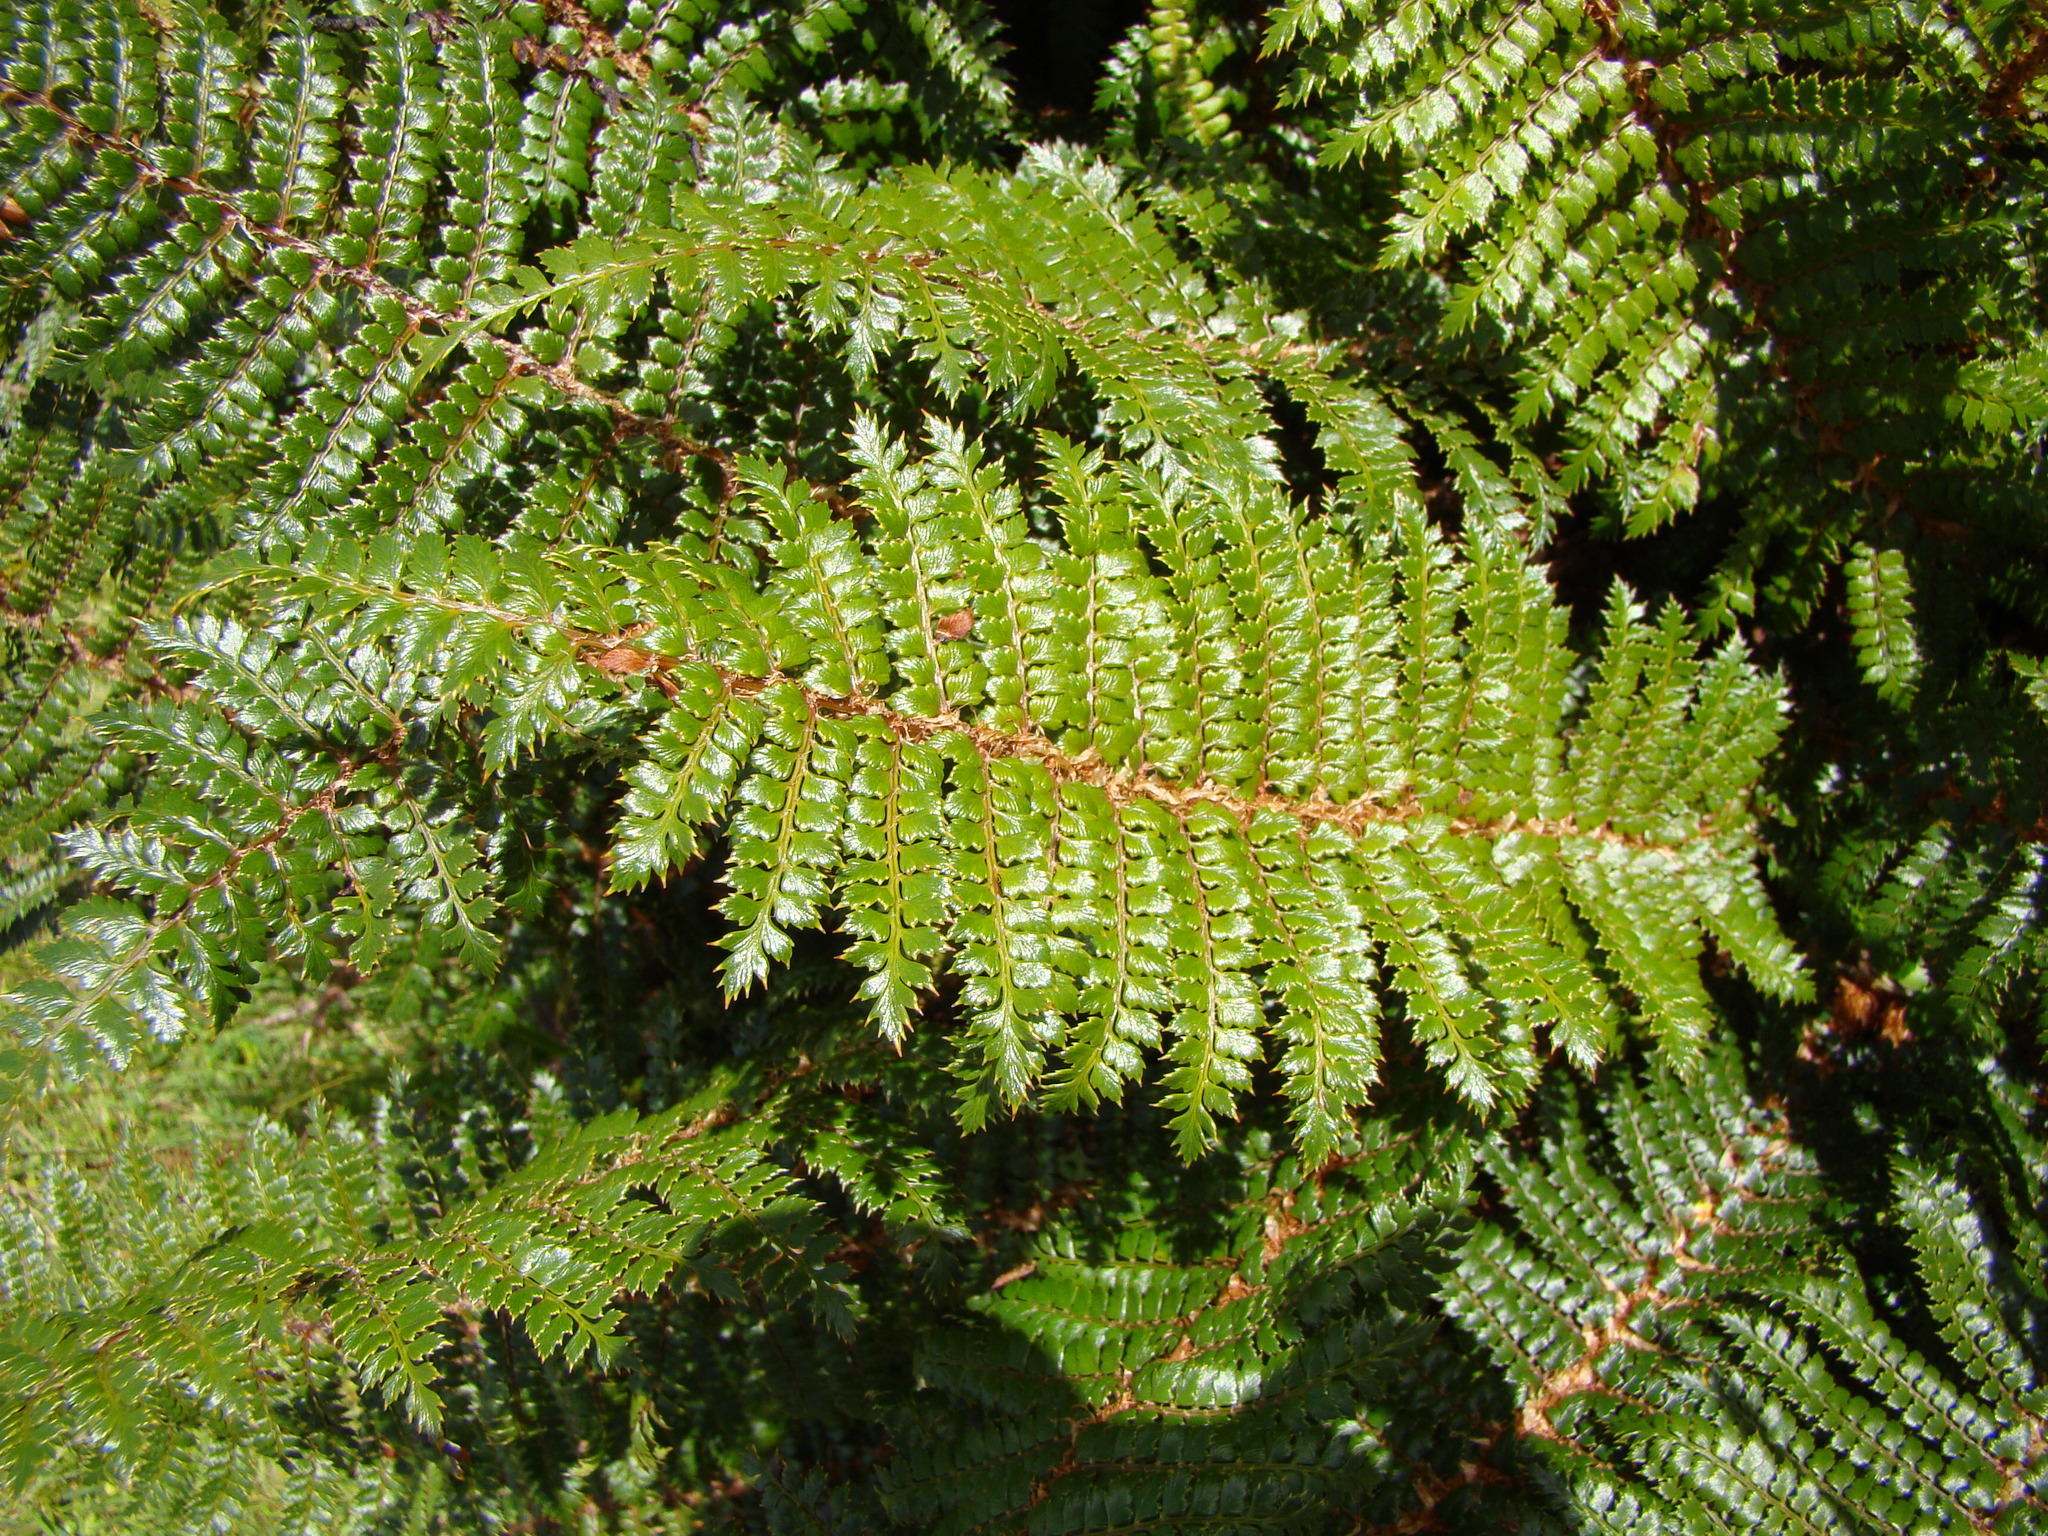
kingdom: Plantae
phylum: Tracheophyta
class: Polypodiopsida
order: Polypodiales
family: Dryopteridaceae
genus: Polystichum
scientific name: Polystichum vestitum
